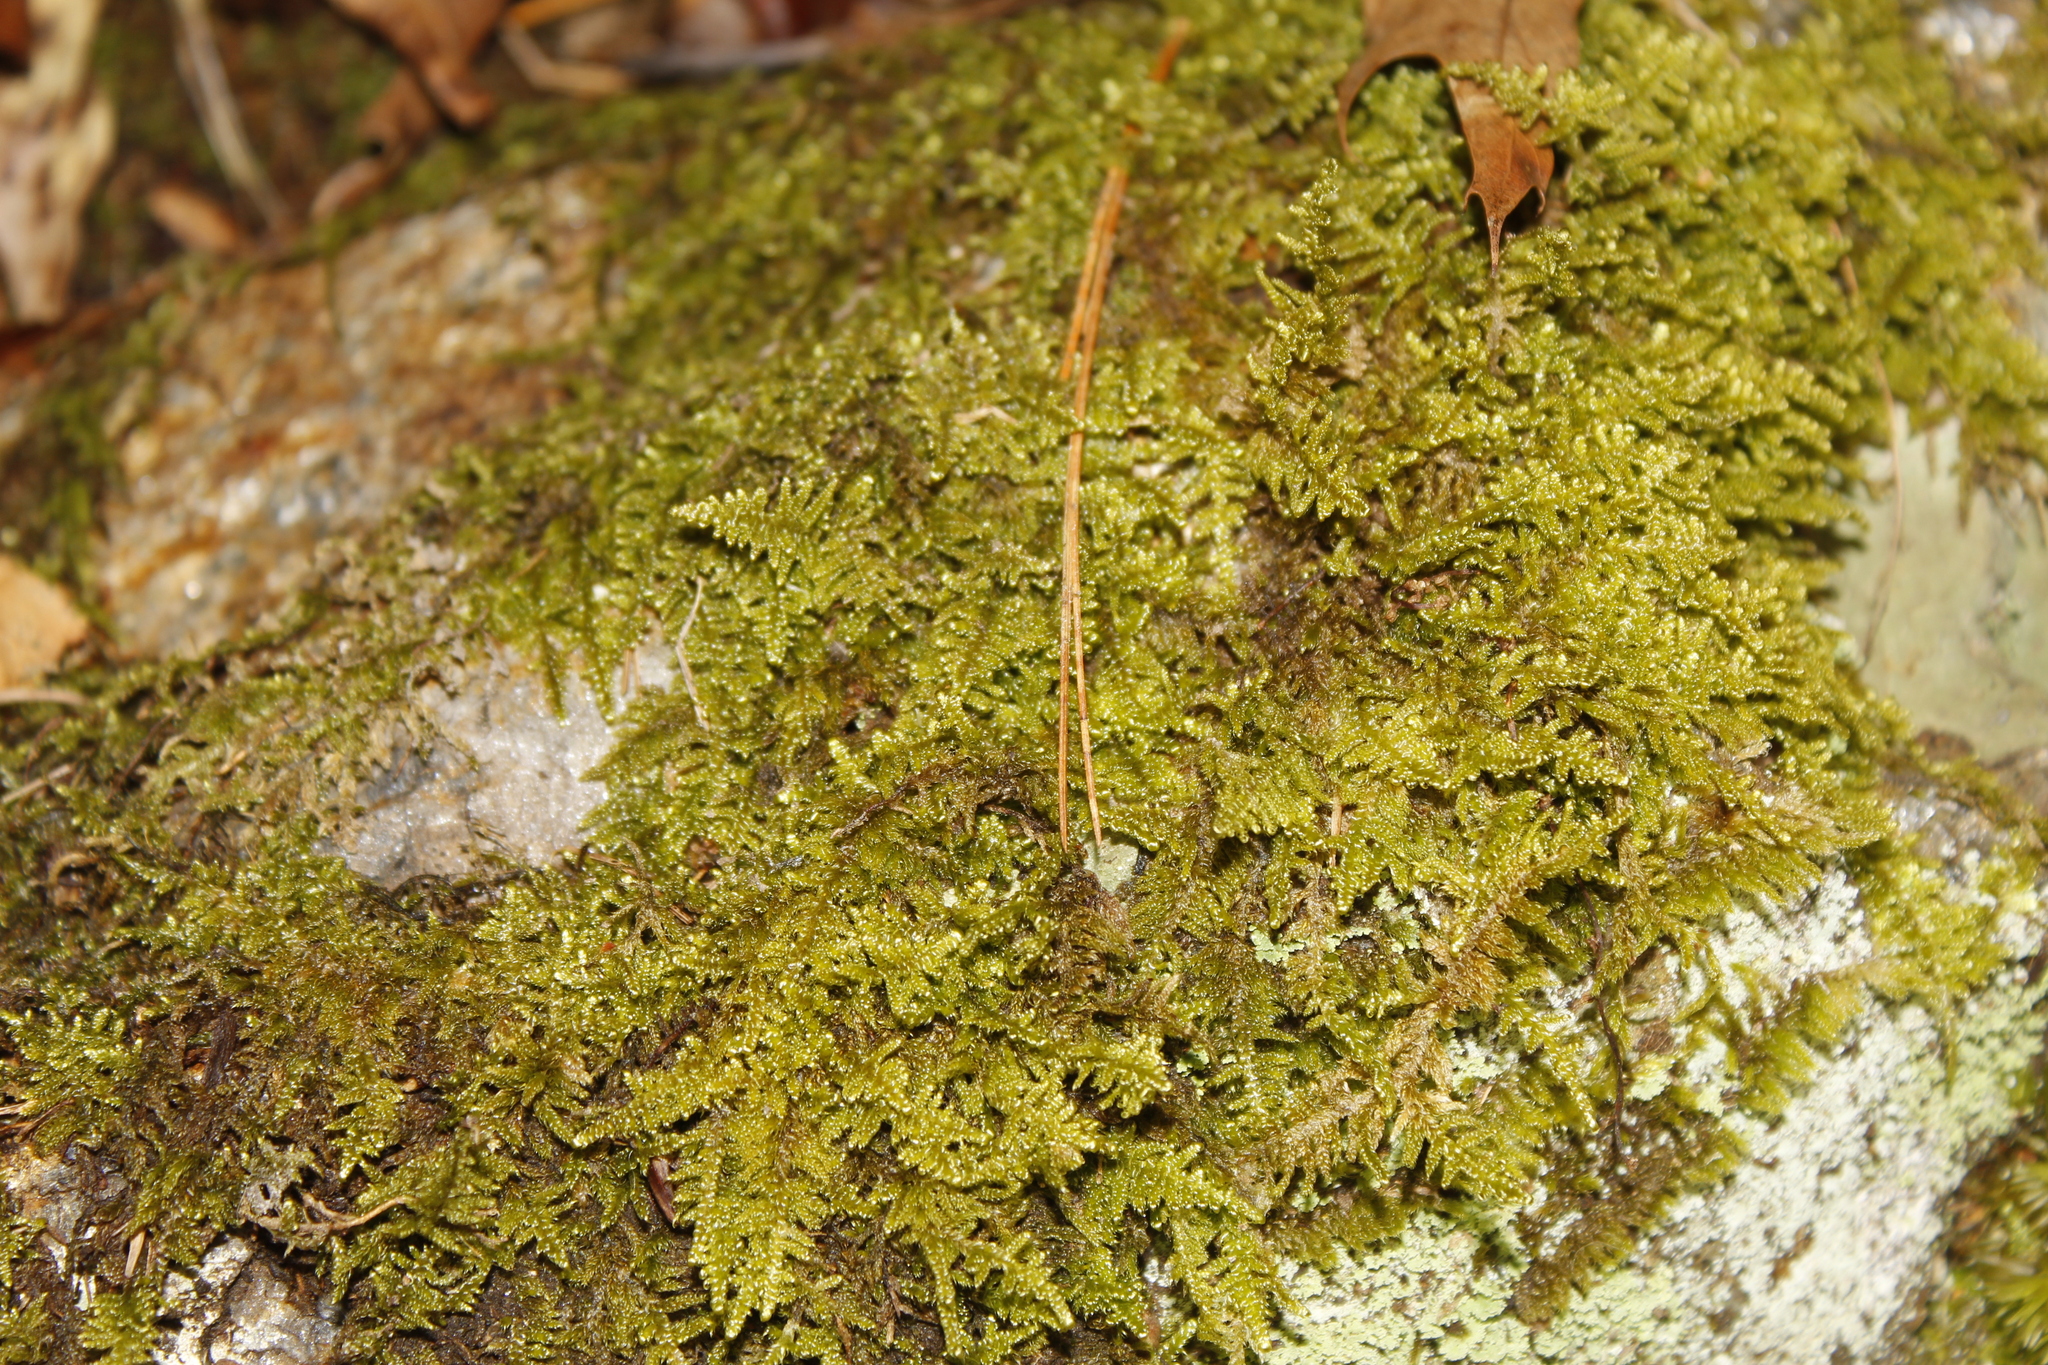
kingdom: Plantae
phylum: Bryophyta
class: Bryopsida
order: Hypnales
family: Callicladiaceae
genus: Callicladium
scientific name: Callicladium imponens
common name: Brocade moss
